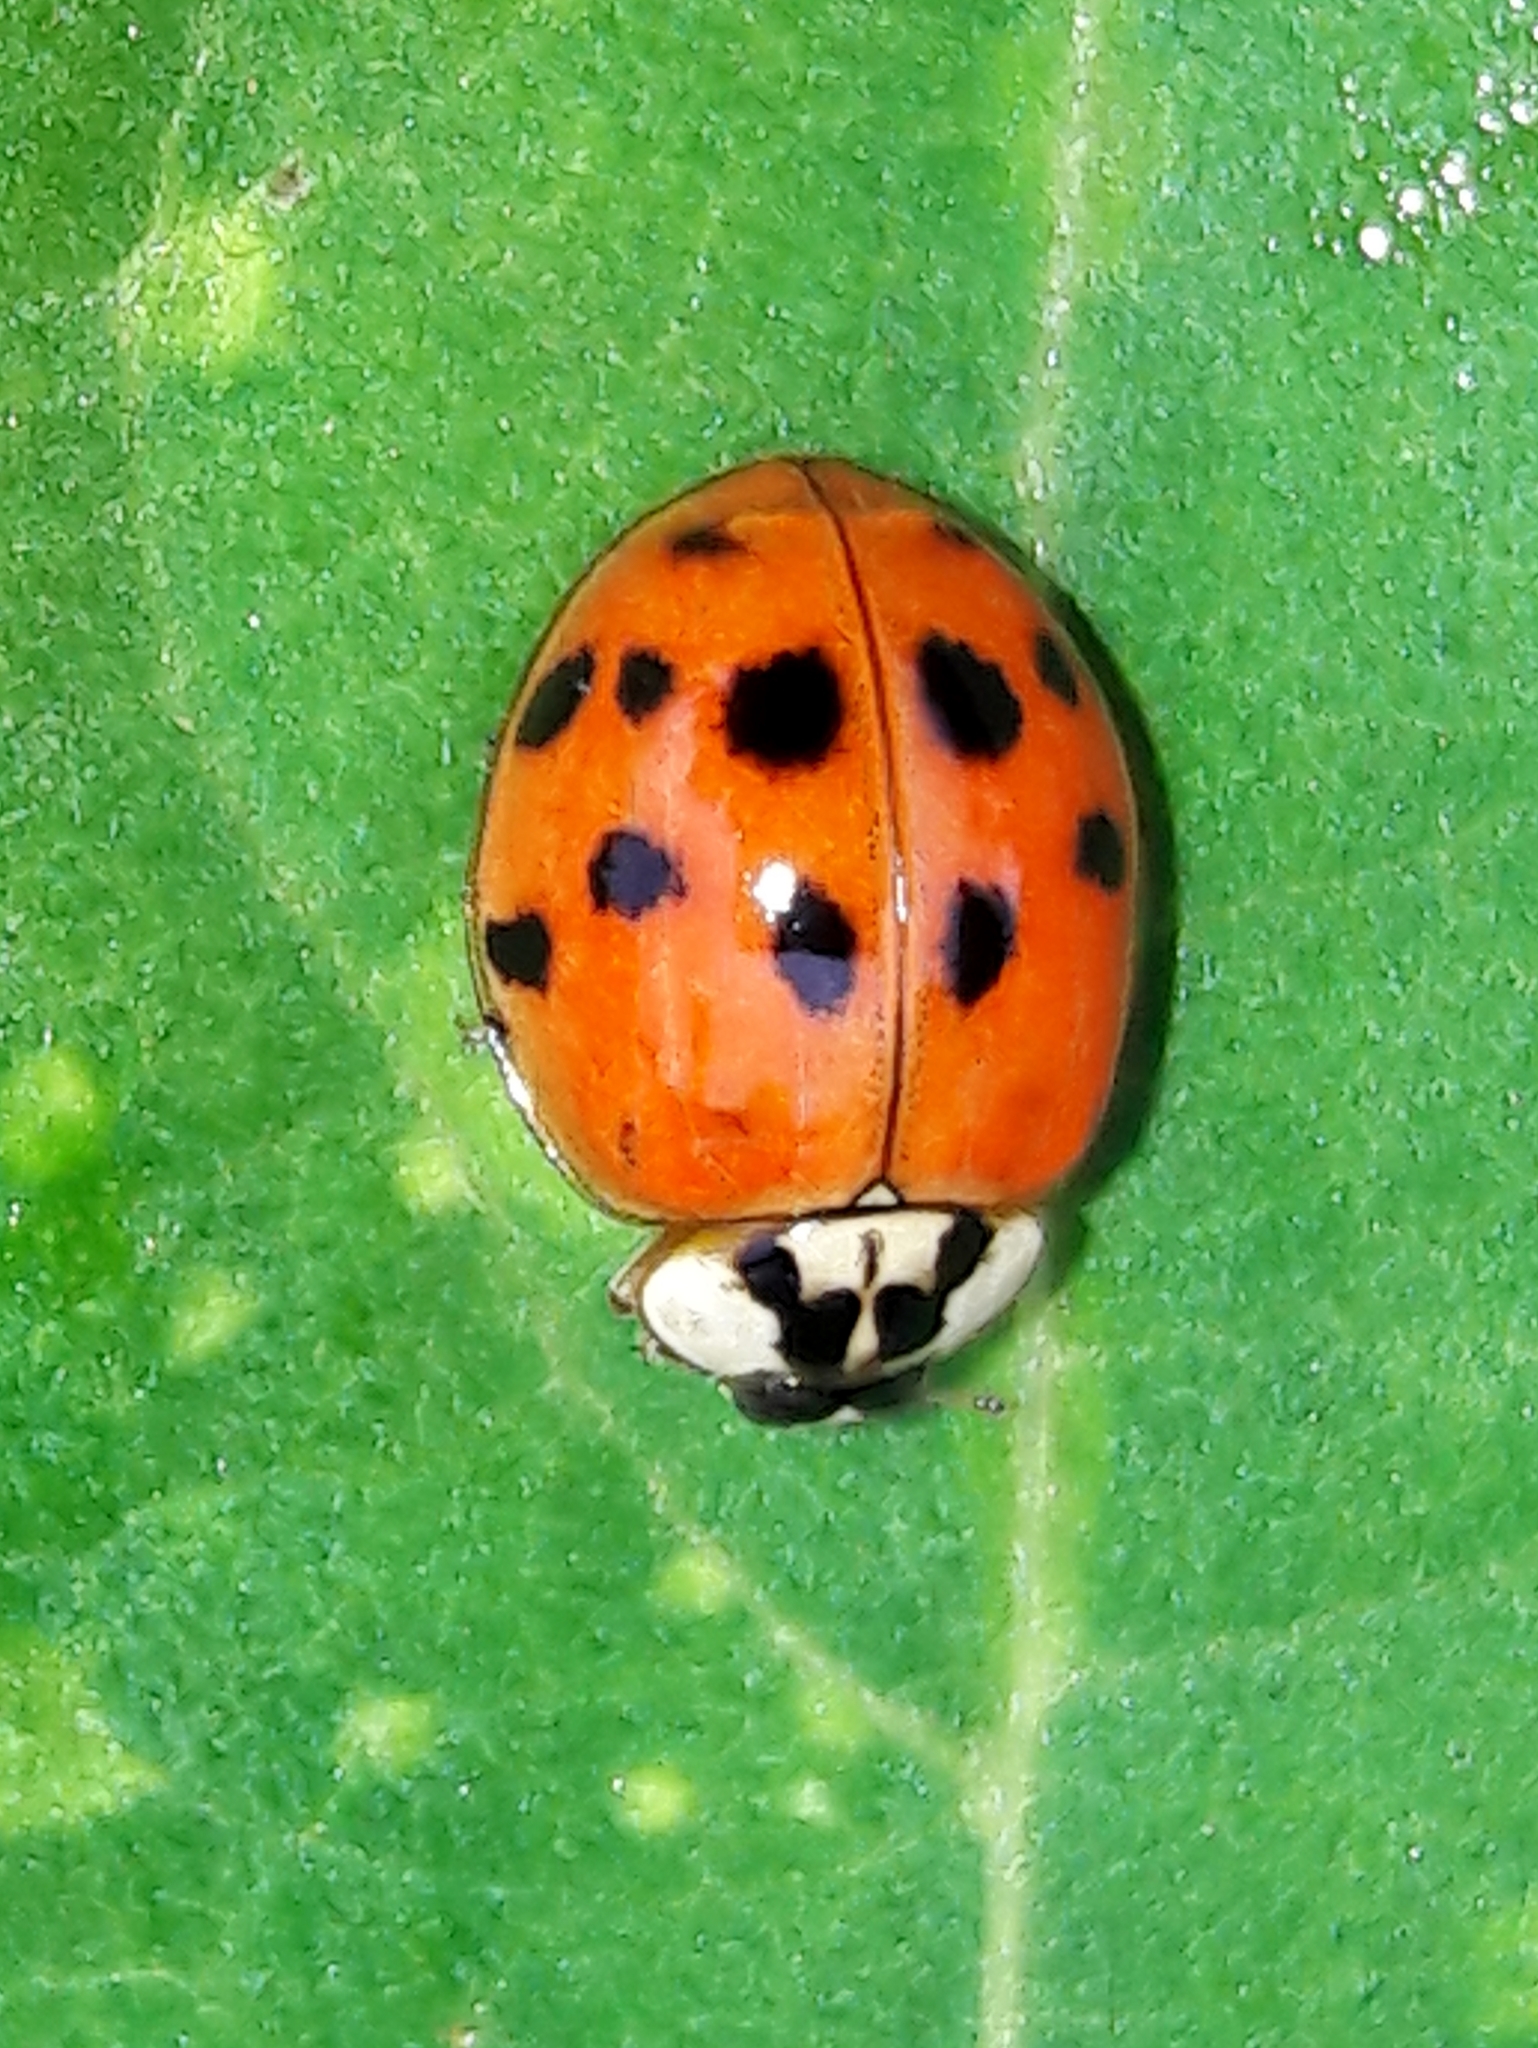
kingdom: Animalia
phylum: Arthropoda
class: Insecta
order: Coleoptera
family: Coccinellidae
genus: Harmonia
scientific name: Harmonia axyridis
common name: Harlequin ladybird
